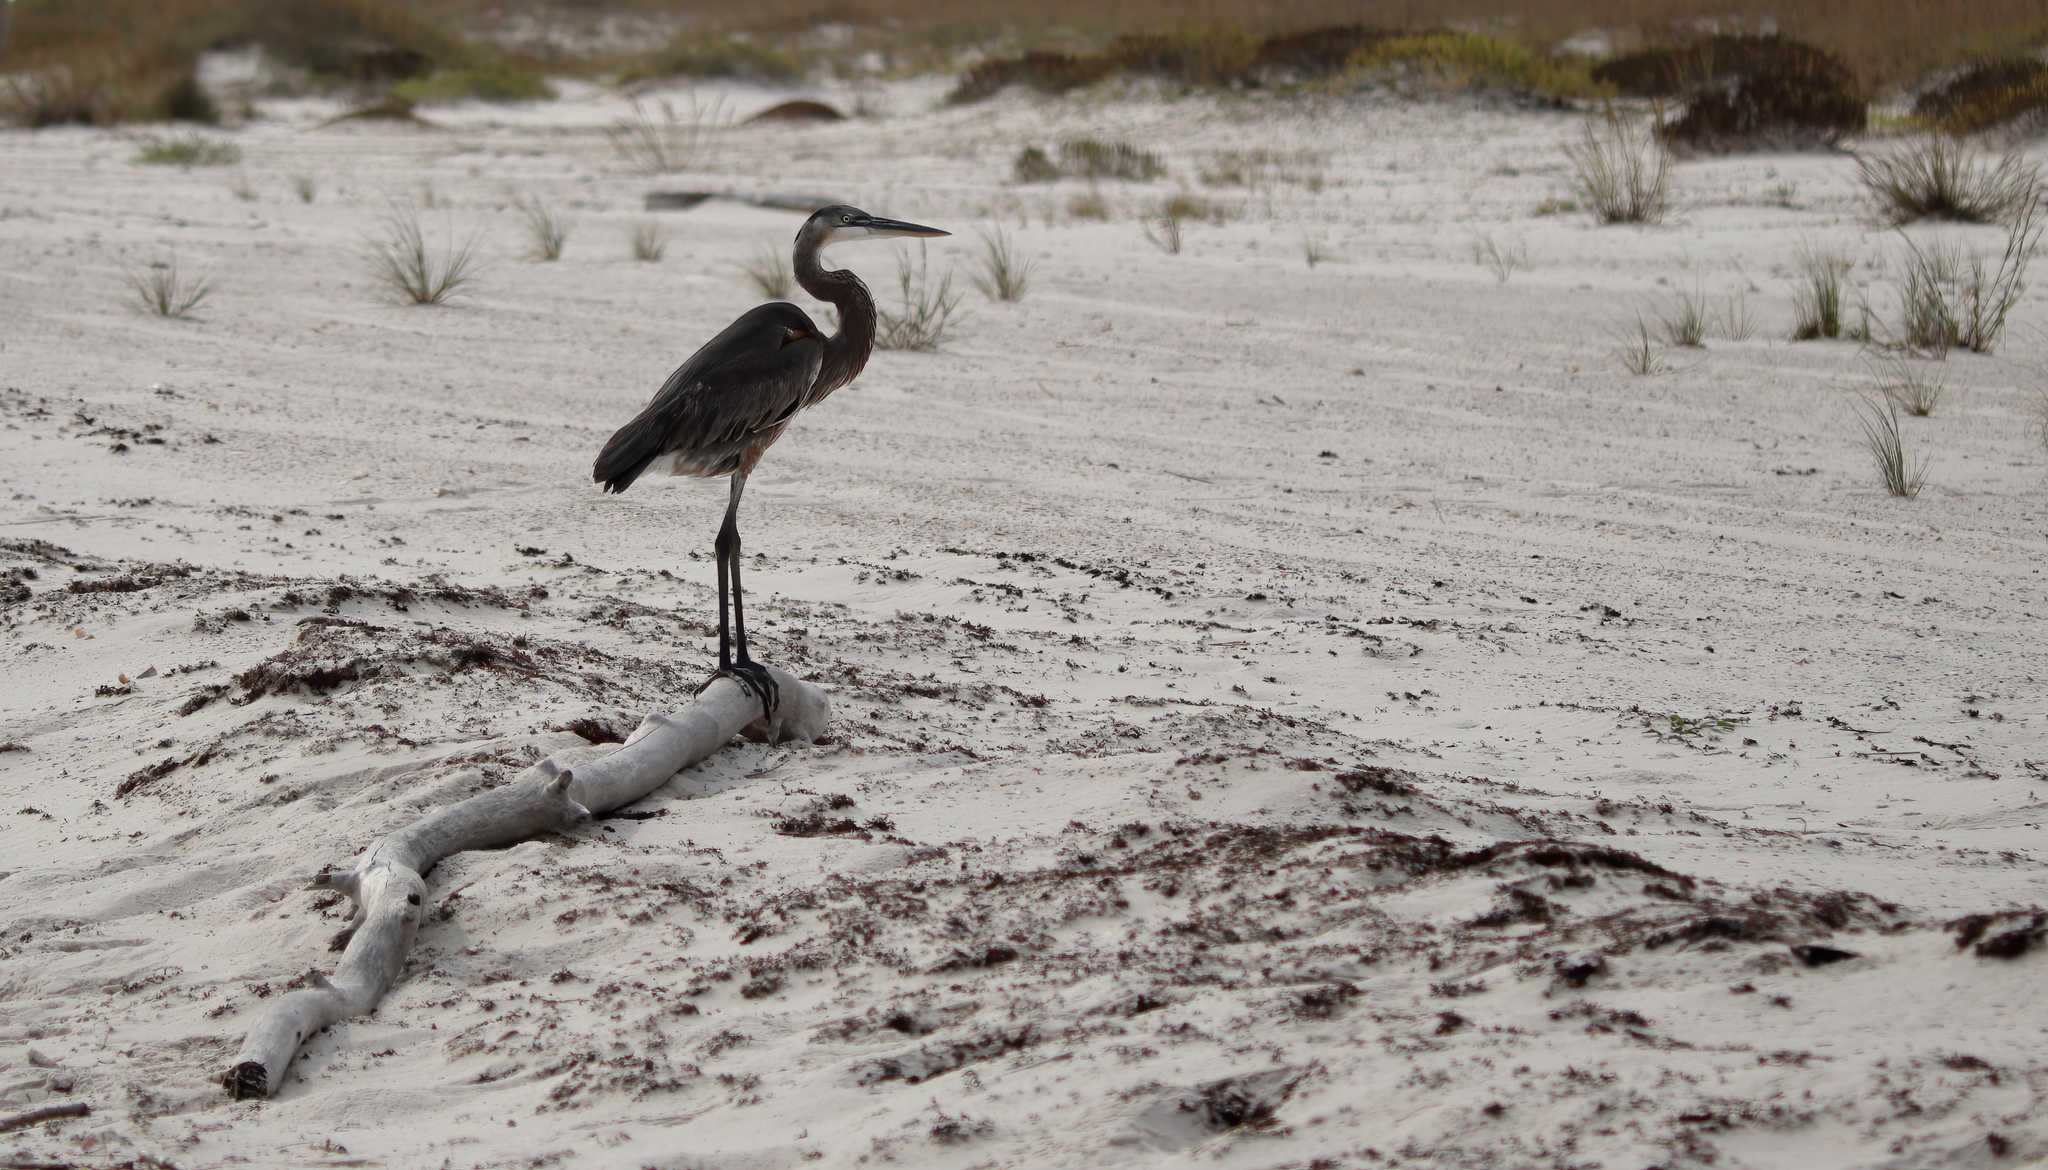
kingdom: Animalia
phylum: Chordata
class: Aves
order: Pelecaniformes
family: Ardeidae
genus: Ardea
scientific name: Ardea herodias
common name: Great blue heron
